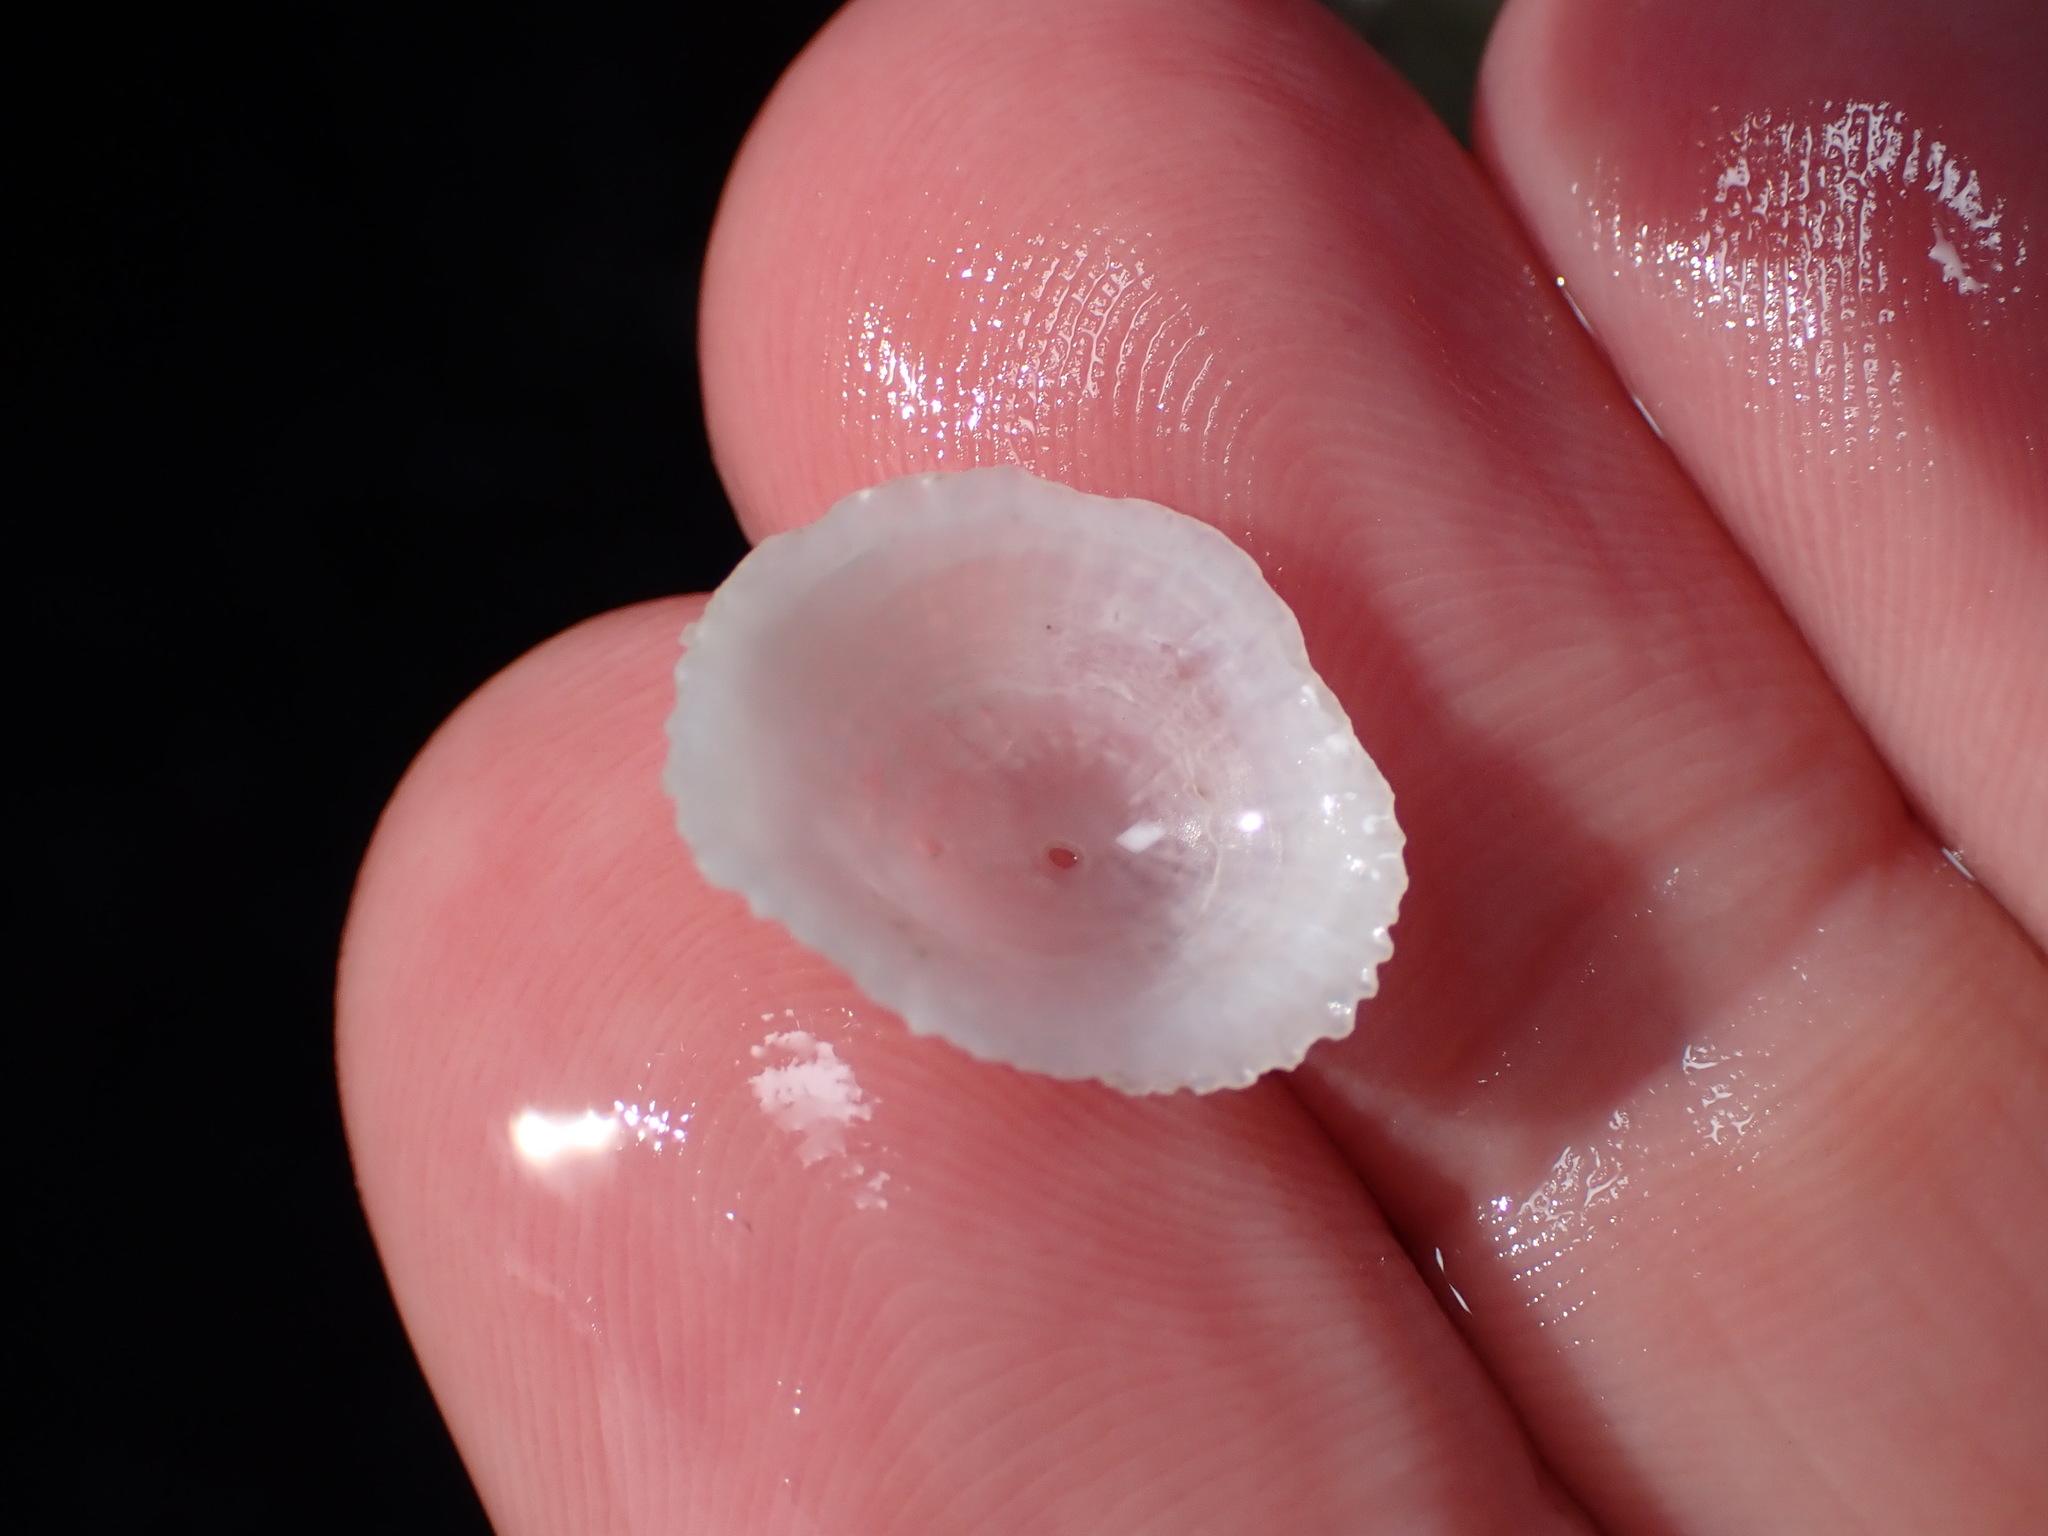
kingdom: Animalia
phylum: Mollusca
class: Gastropoda
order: Ellobiida
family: Trimusculidae
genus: Trimusculus
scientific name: Trimusculus conicus
